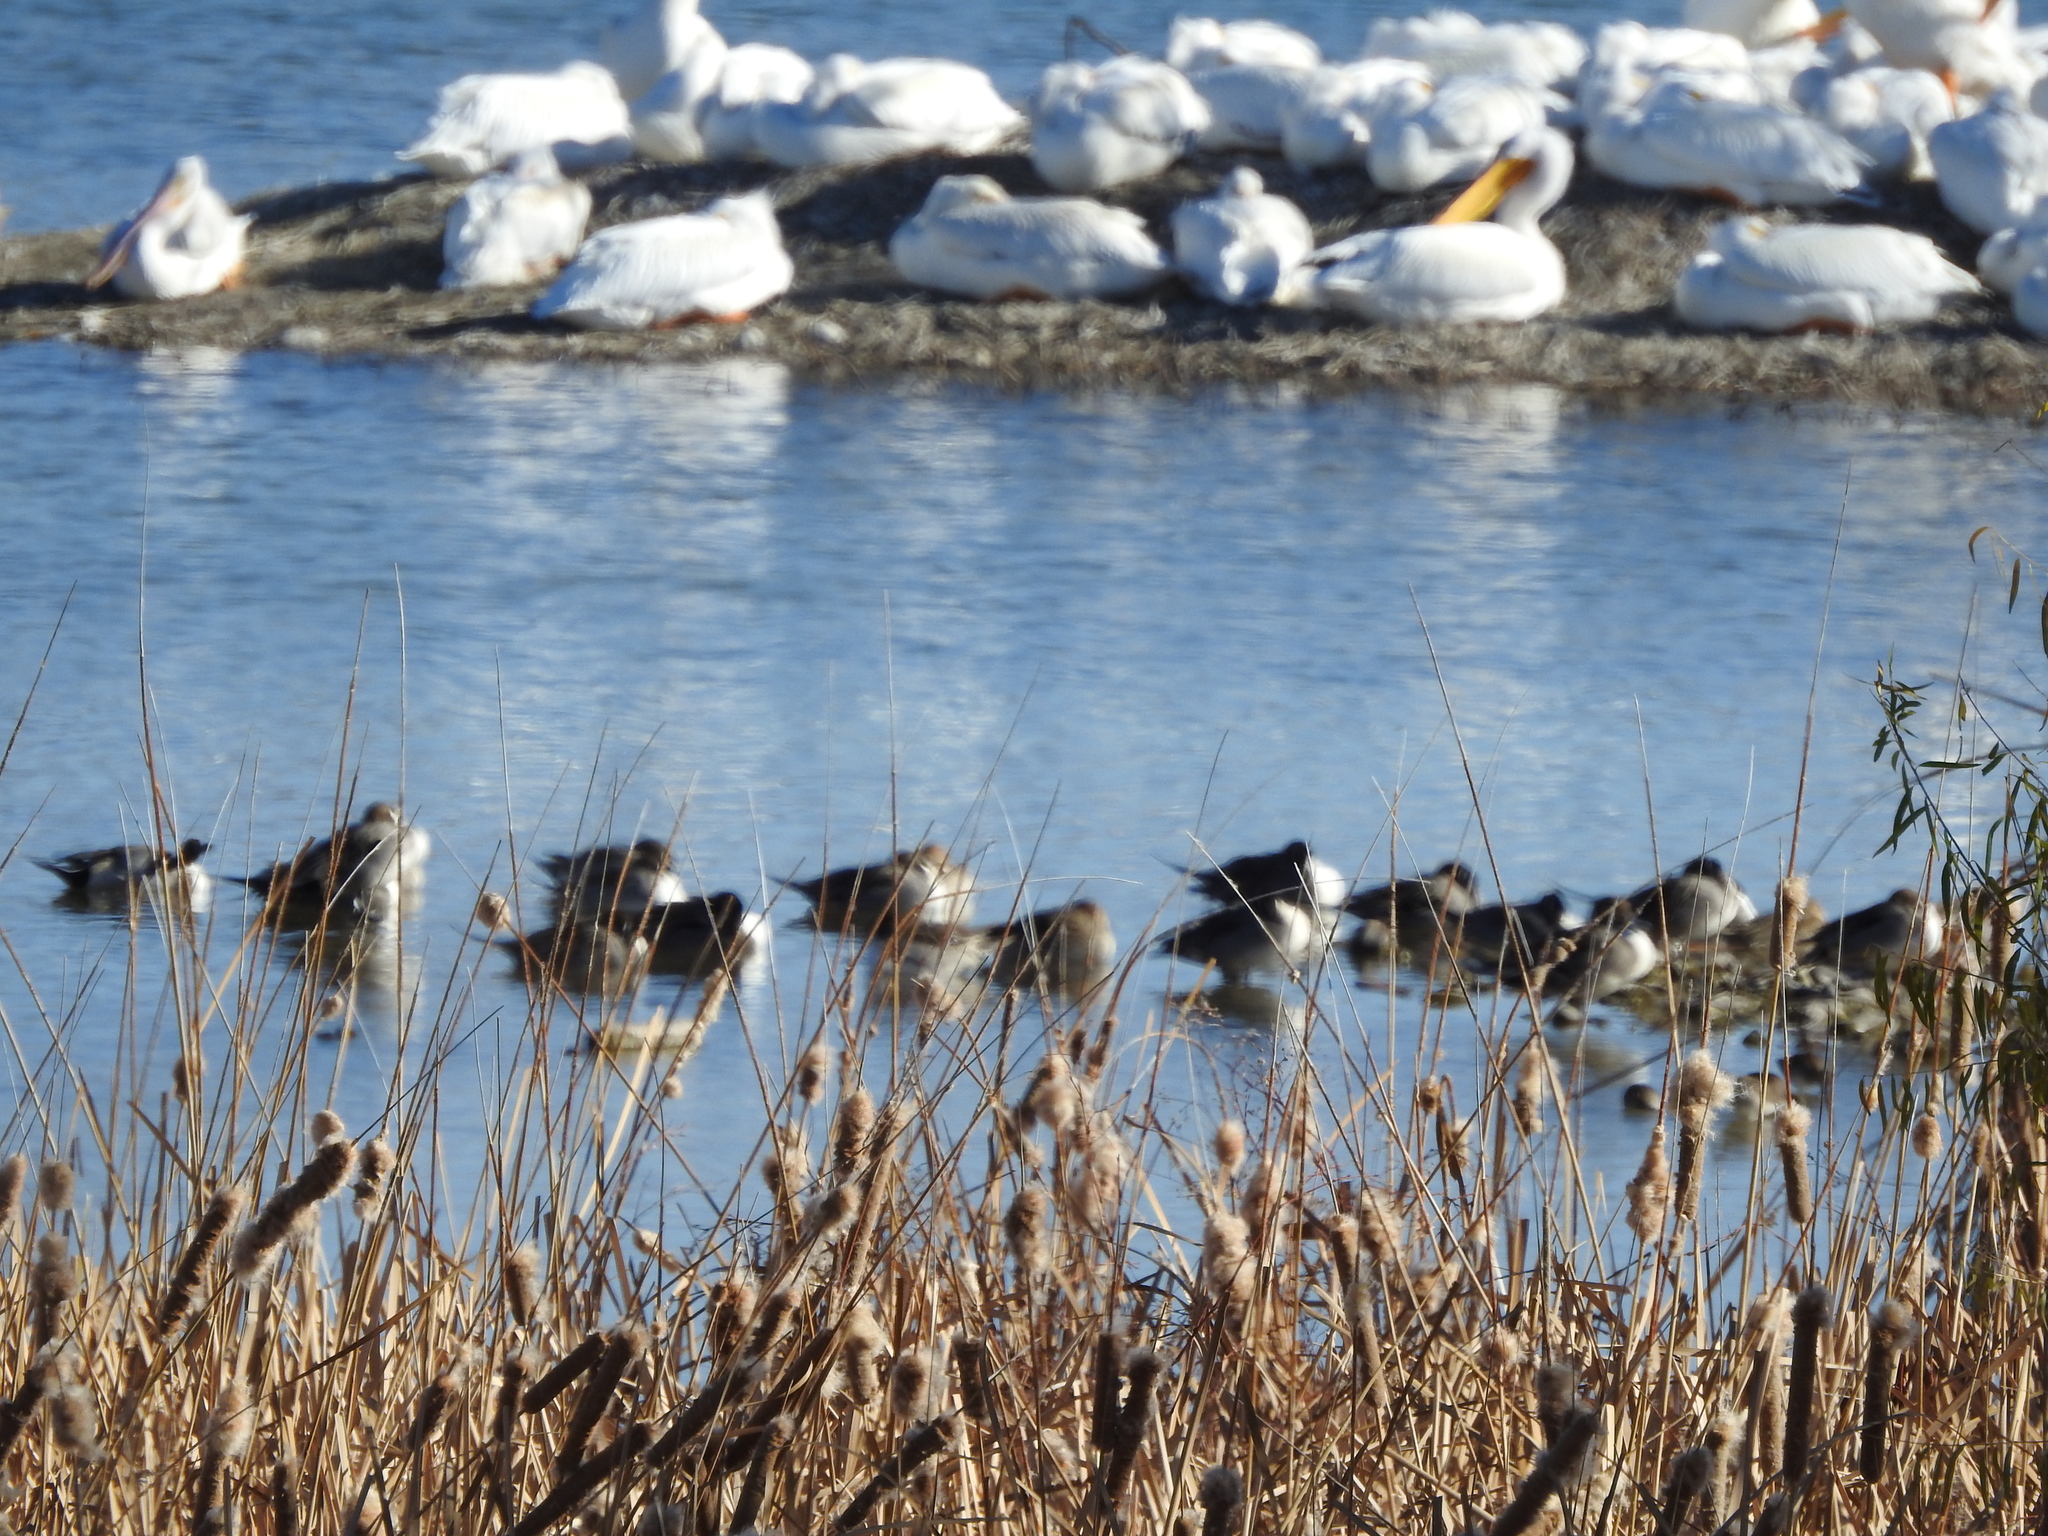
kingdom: Animalia
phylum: Chordata
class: Aves
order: Anseriformes
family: Anatidae
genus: Anas
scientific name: Anas acuta
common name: Northern pintail
